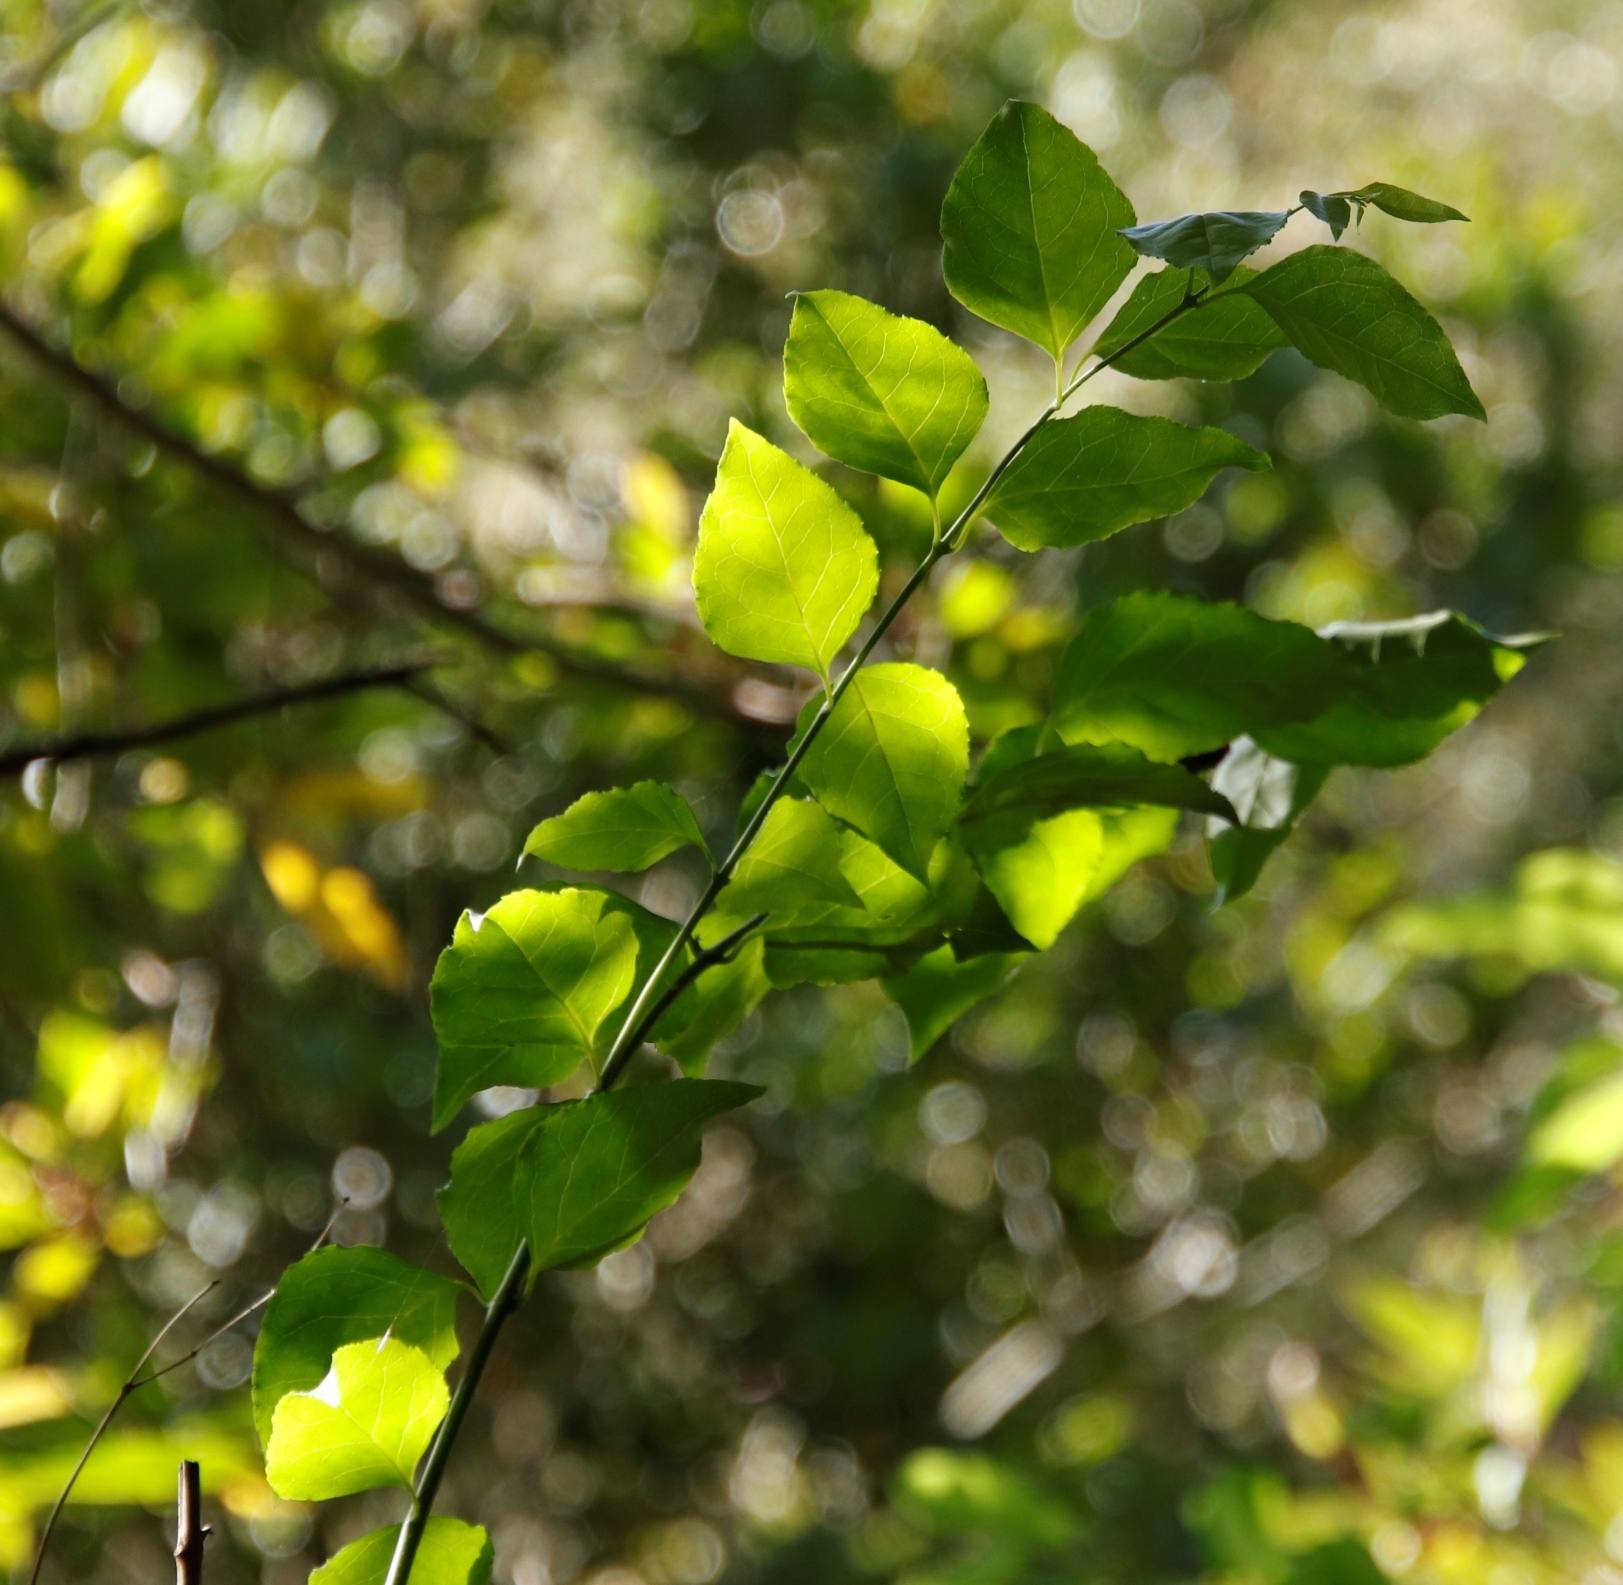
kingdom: Plantae
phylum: Tracheophyta
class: Magnoliopsida
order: Lamiales
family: Stilbaceae
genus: Halleria
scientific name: Halleria lucida
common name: Tree fuschia
